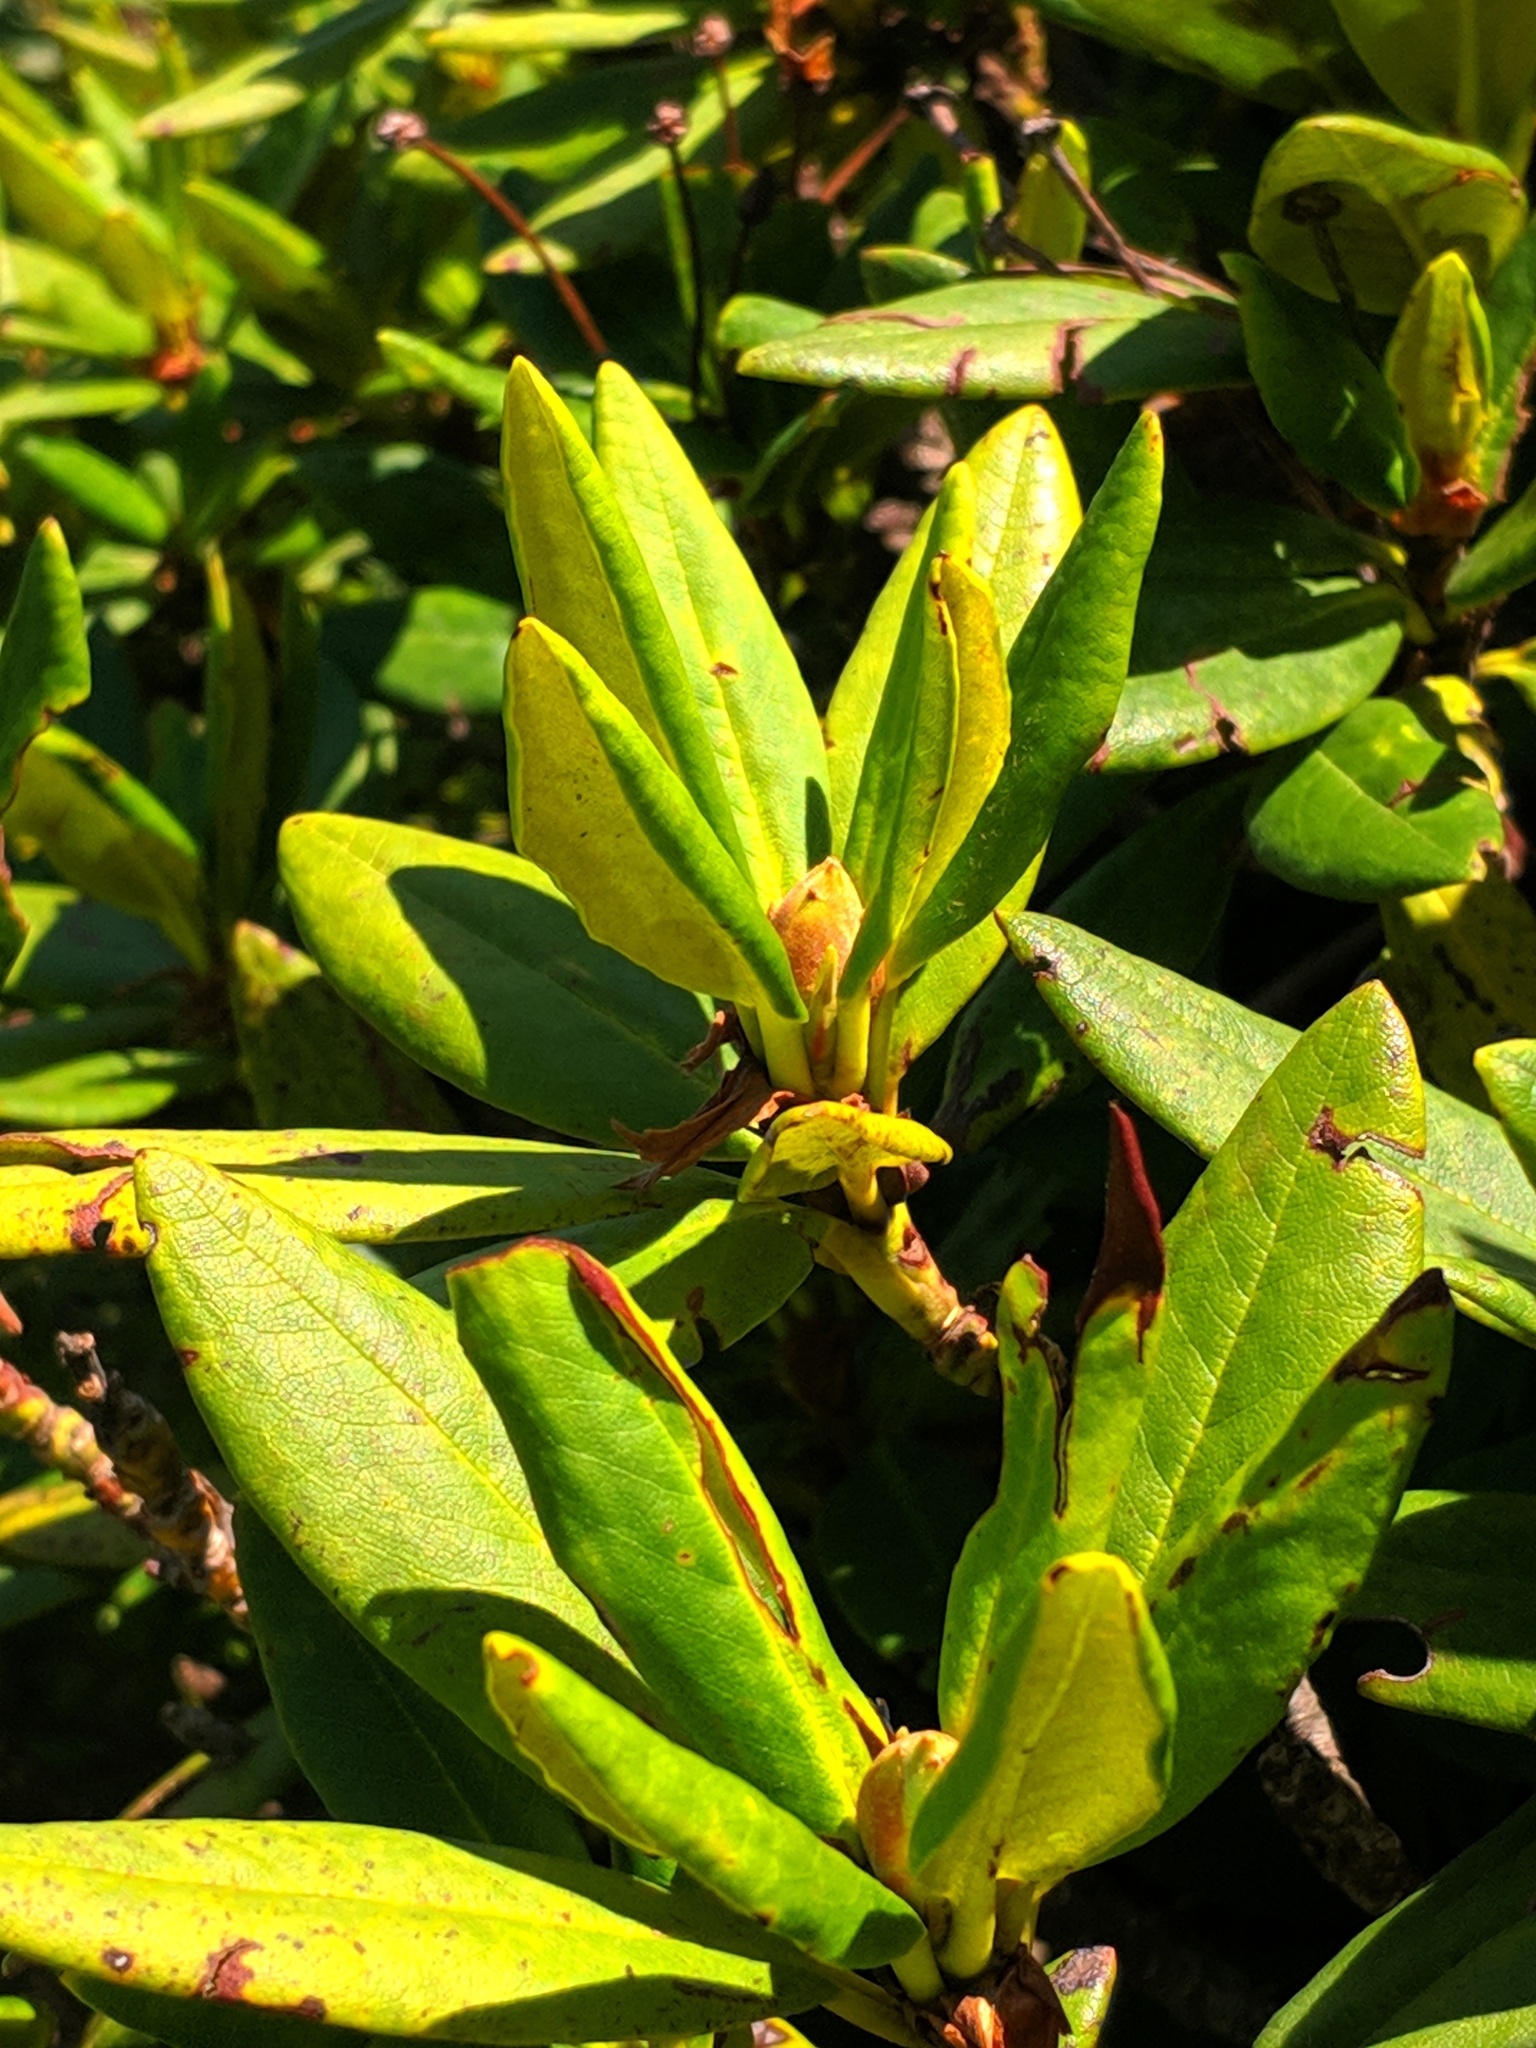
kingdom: Plantae
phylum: Tracheophyta
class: Magnoliopsida
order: Ericales
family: Ericaceae
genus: Rhododendron
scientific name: Rhododendron caucasicum
